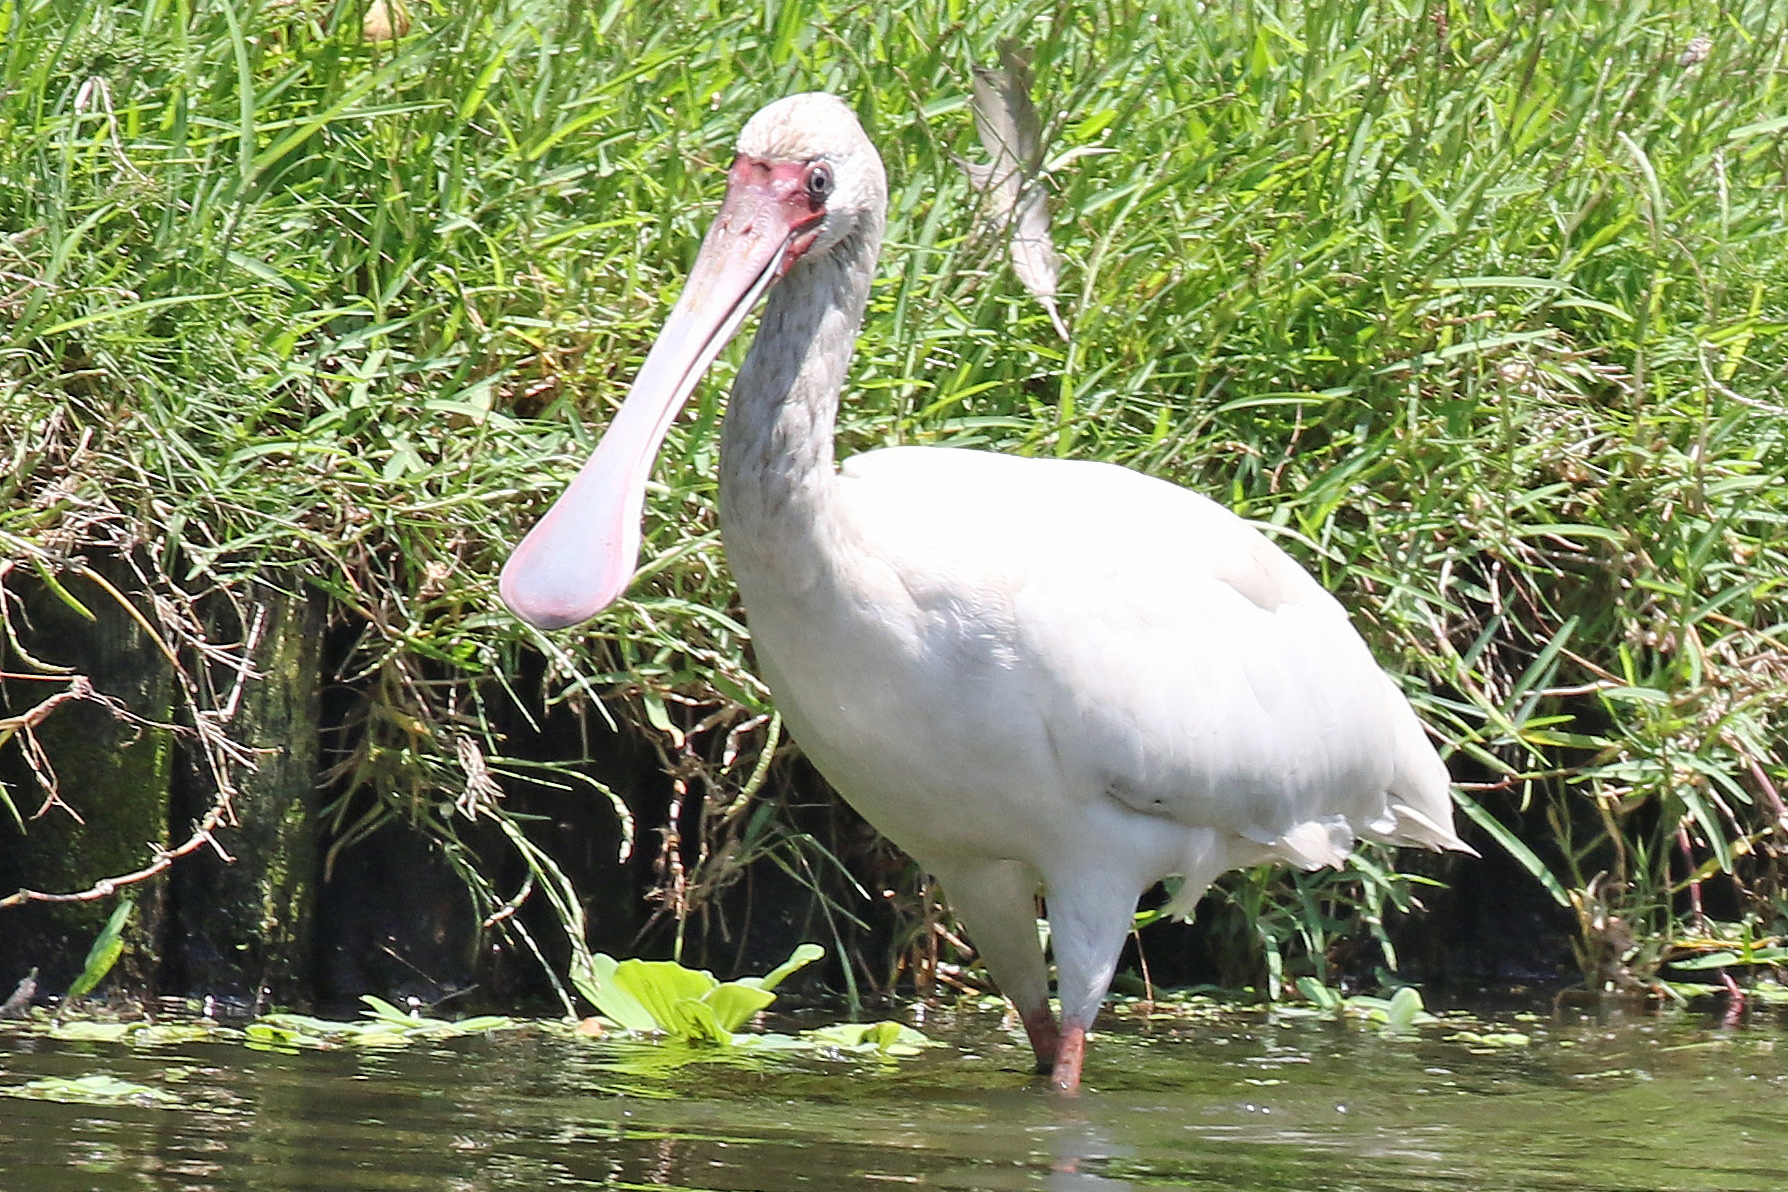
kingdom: Animalia
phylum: Chordata
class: Aves
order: Pelecaniformes
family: Threskiornithidae
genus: Platalea
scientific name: Platalea alba
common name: African spoonbill
